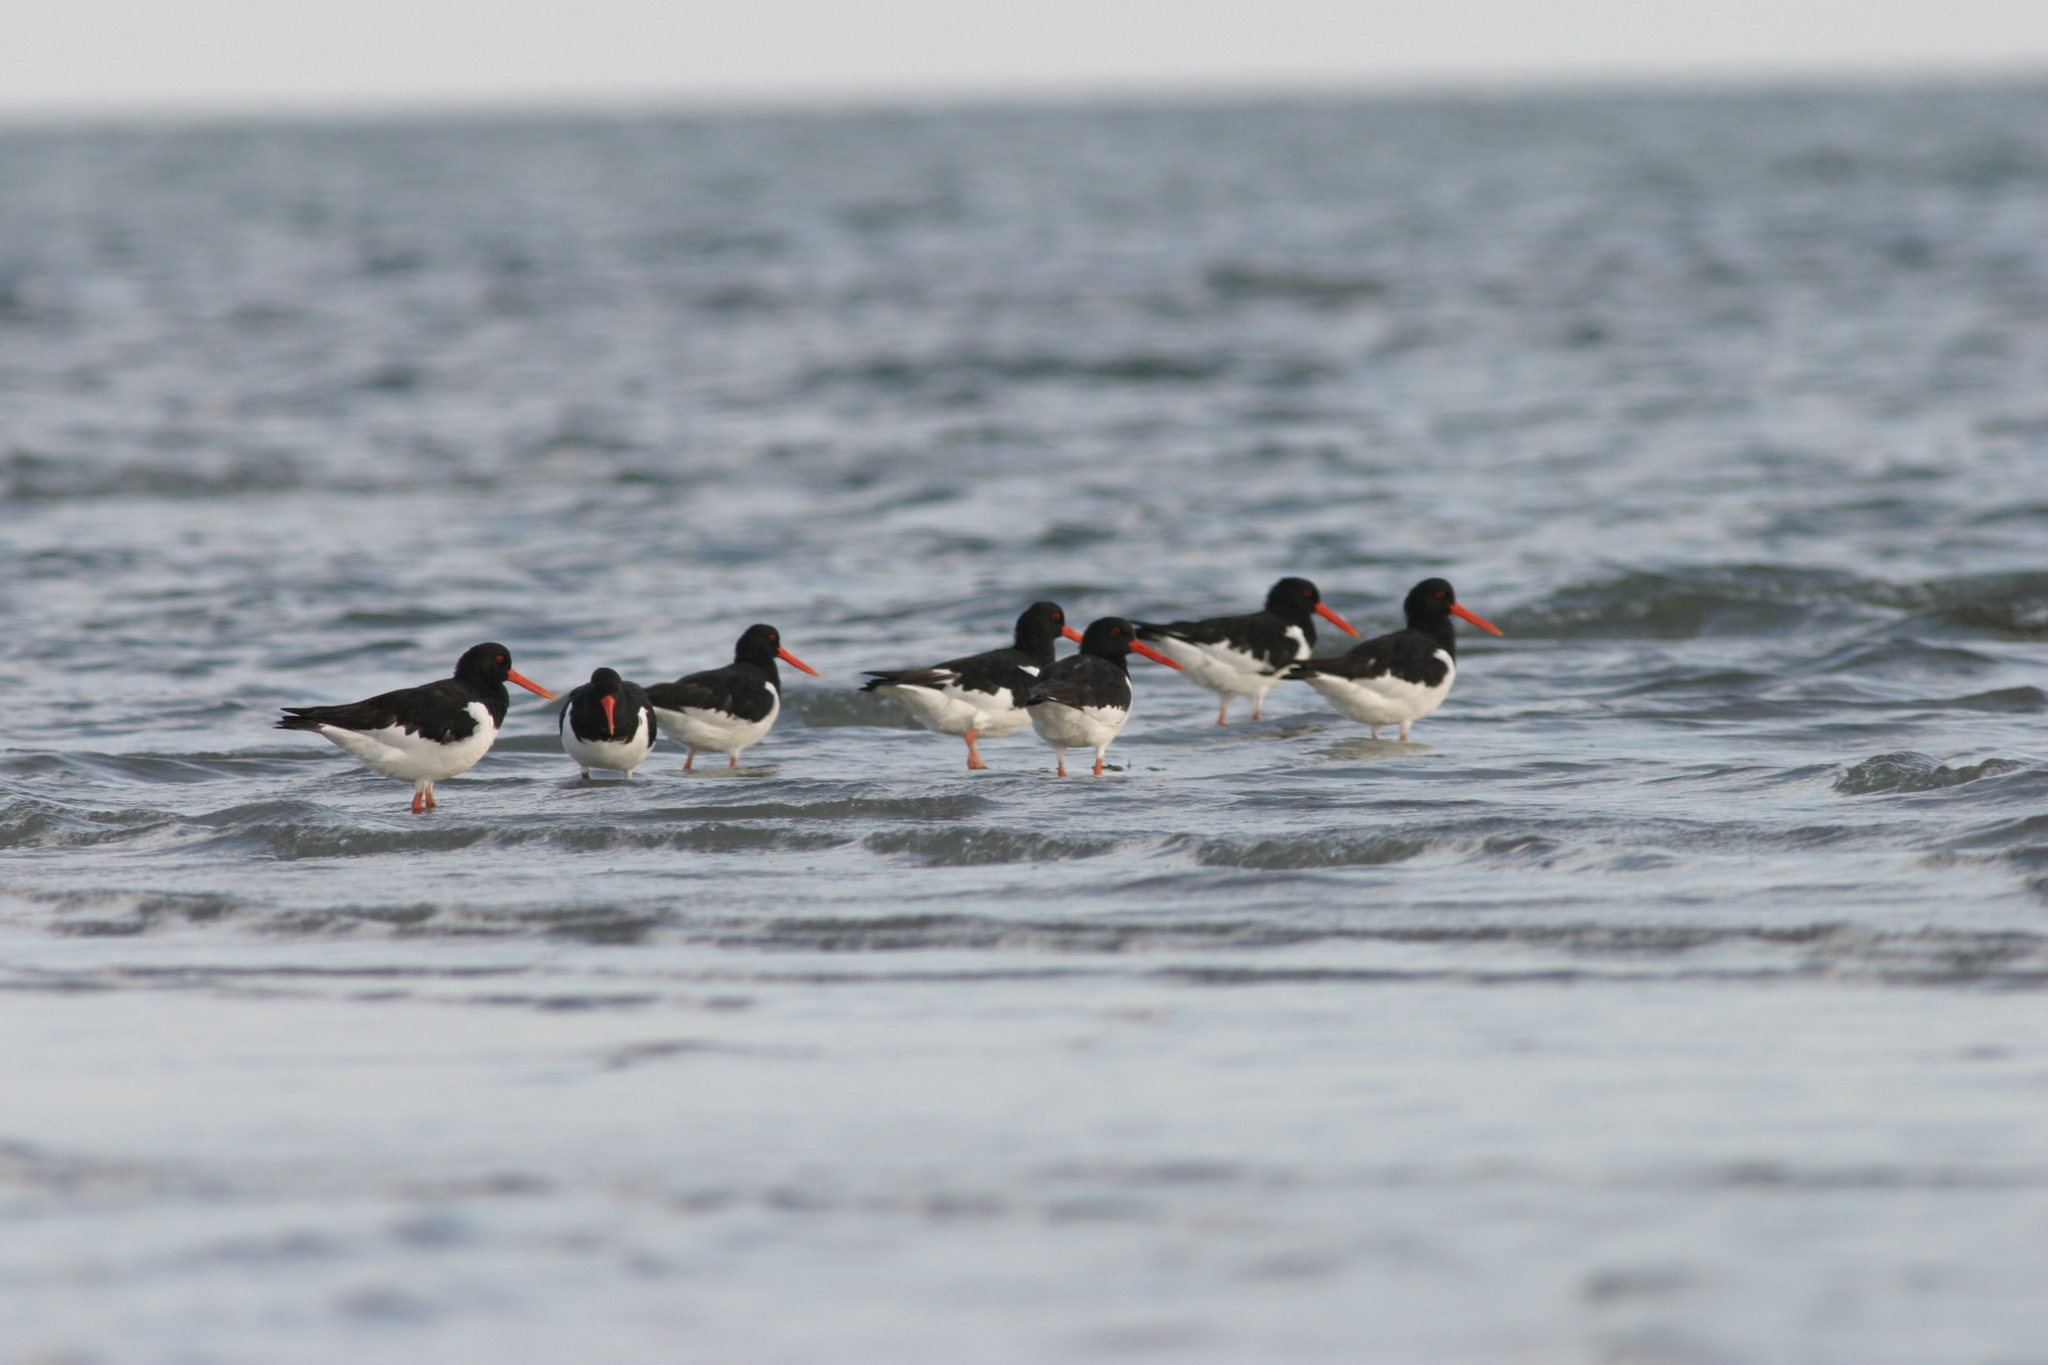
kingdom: Animalia
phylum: Chordata
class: Aves
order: Charadriiformes
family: Haematopodidae
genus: Haematopus
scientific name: Haematopus ostralegus
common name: Eurasian oystercatcher
